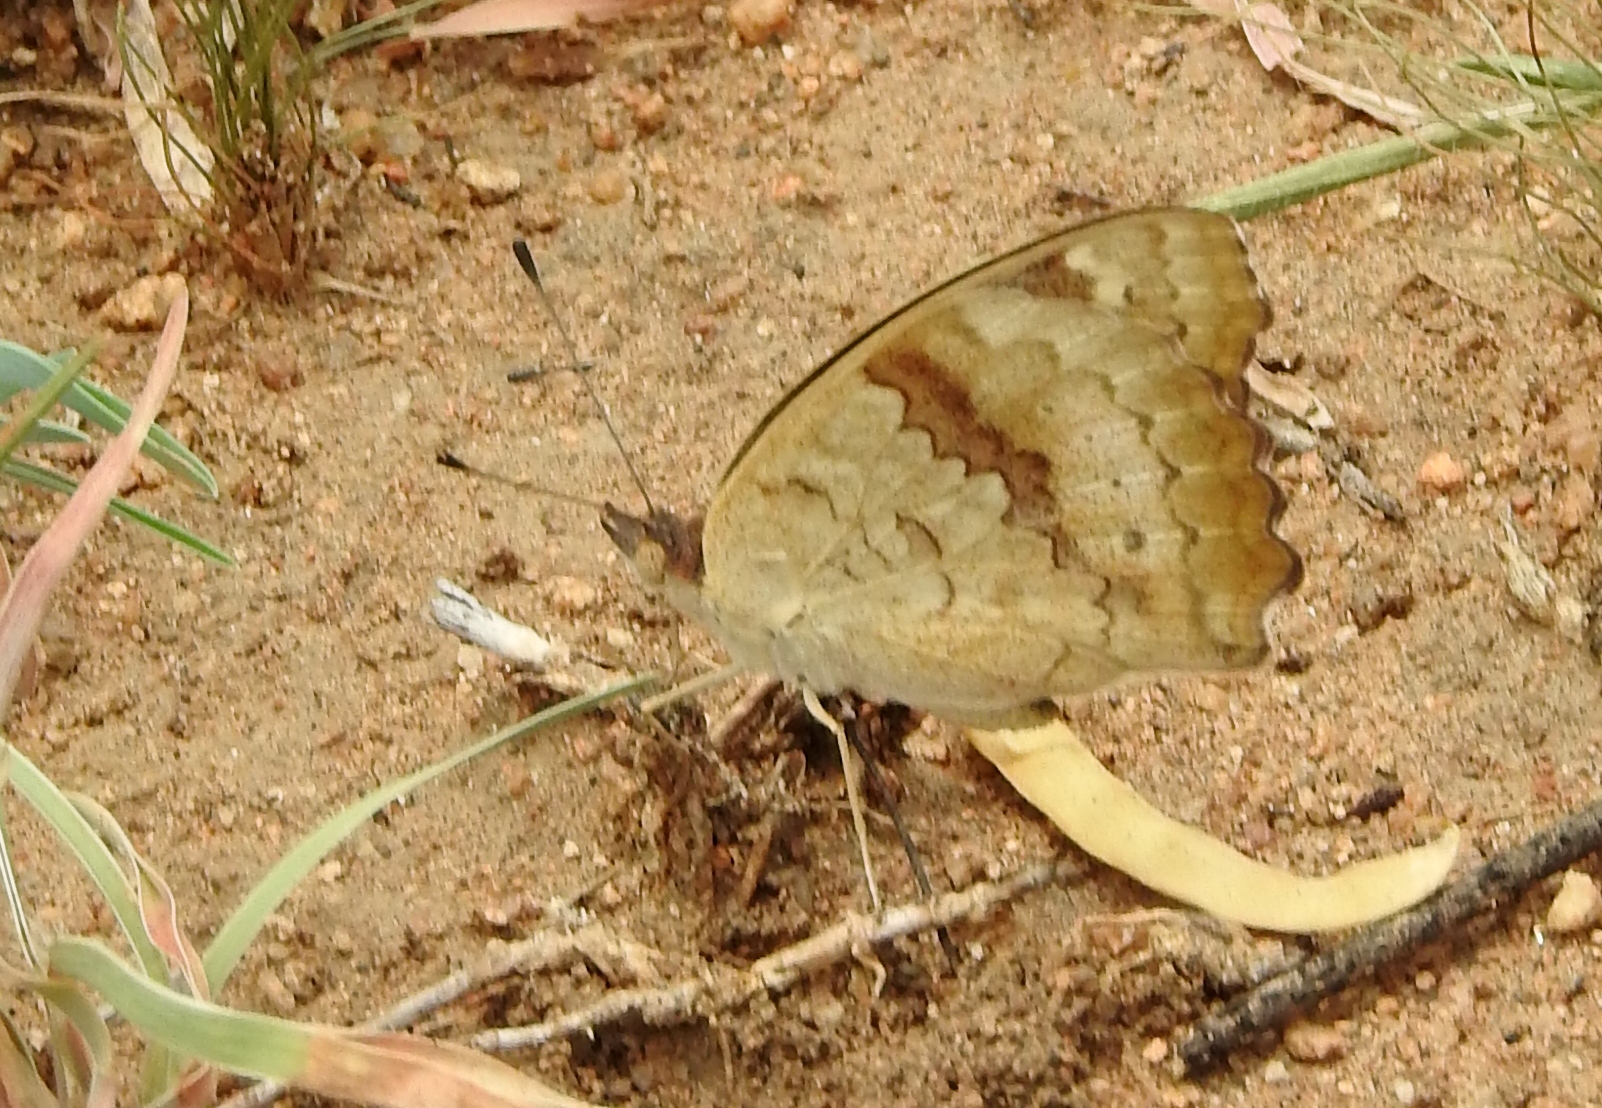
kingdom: Animalia
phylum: Arthropoda
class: Insecta
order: Lepidoptera
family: Nymphalidae
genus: Junonia
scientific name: Junonia hierta
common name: Yellow pansy
